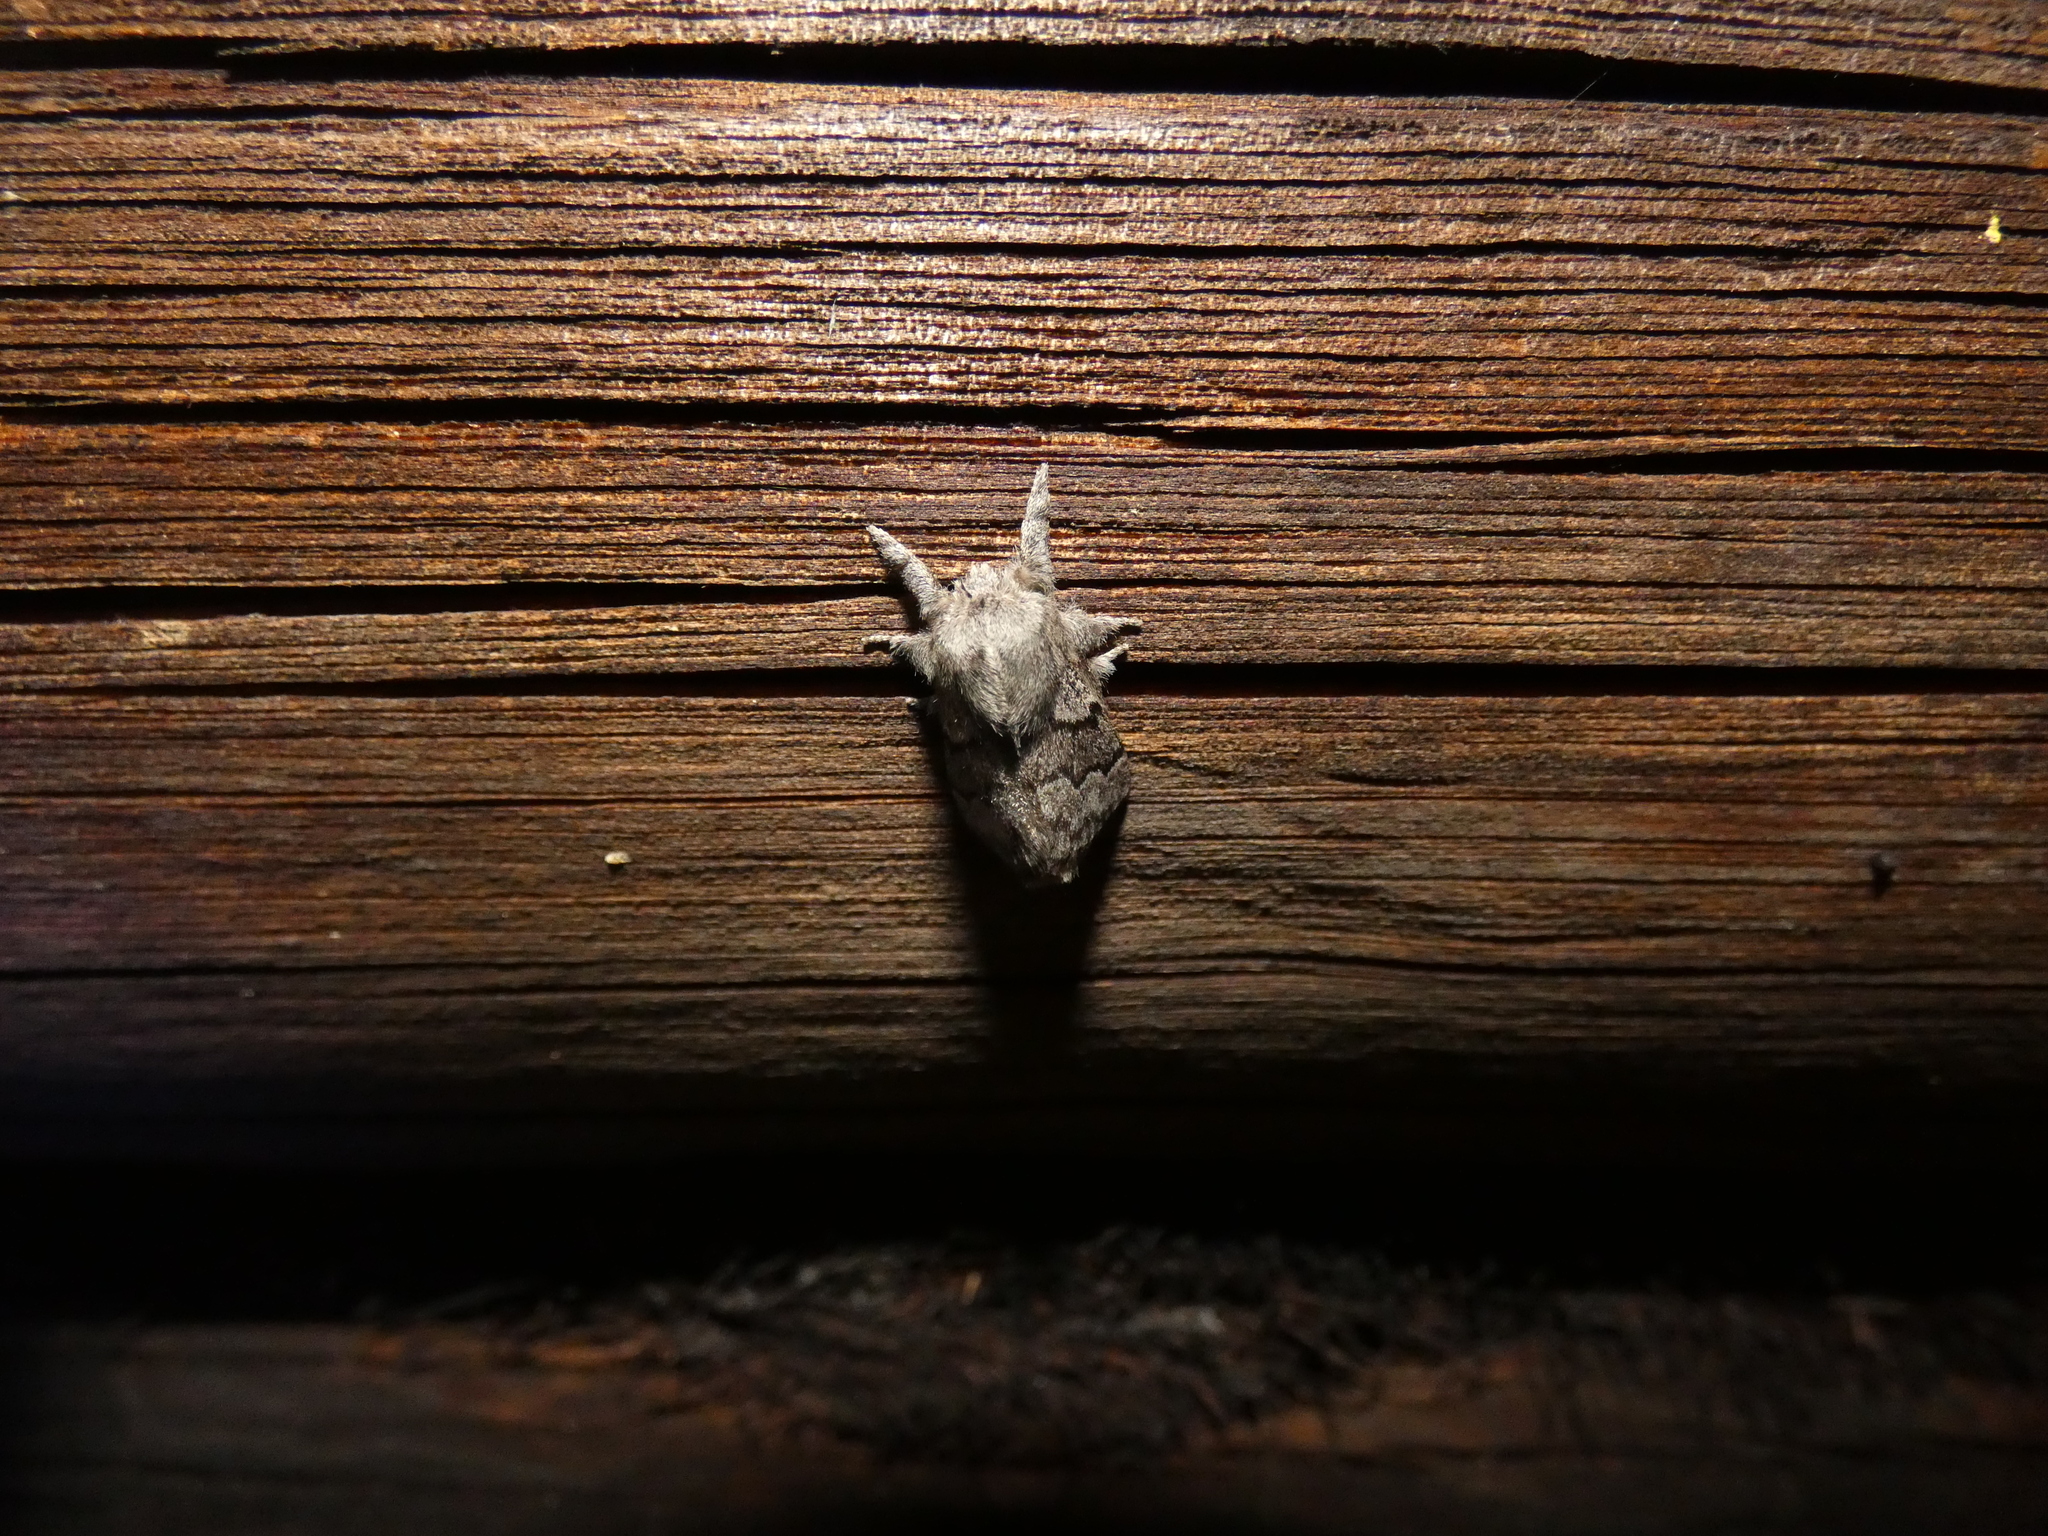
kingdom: Animalia
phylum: Arthropoda
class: Insecta
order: Lepidoptera
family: Lasiocampidae
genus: Trichiura
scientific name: Trichiura crataegi
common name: Pale eggar
